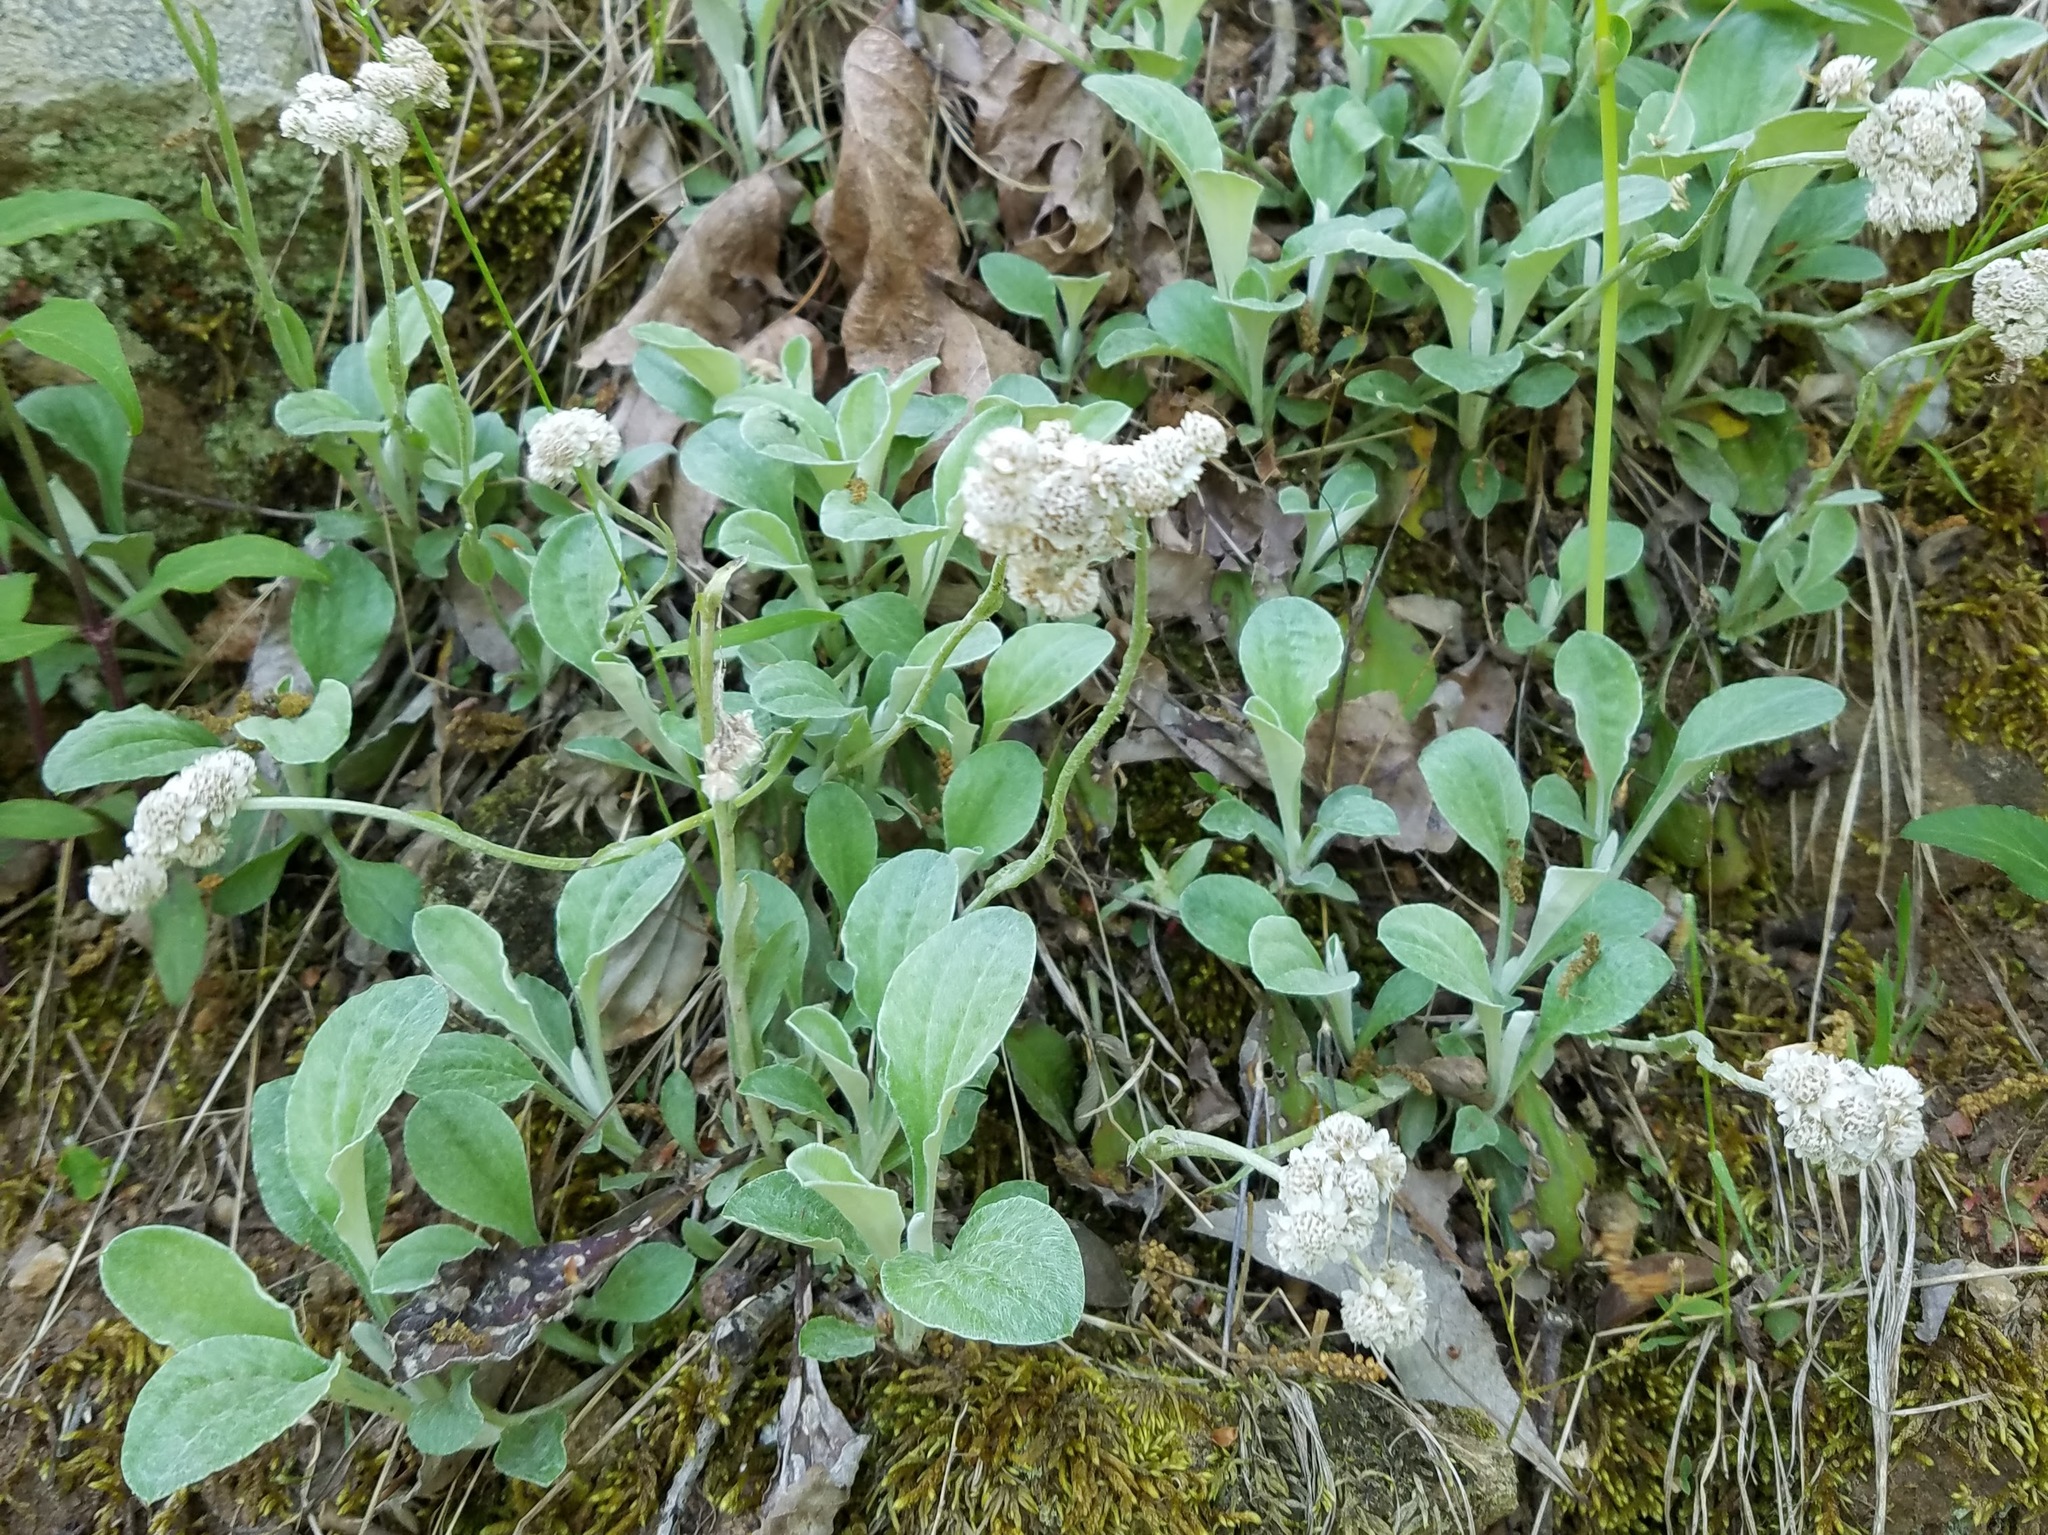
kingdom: Plantae
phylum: Tracheophyta
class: Magnoliopsida
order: Asterales
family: Asteraceae
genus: Antennaria
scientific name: Antennaria plantaginifolia
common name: Plantain-leaved pussytoes
